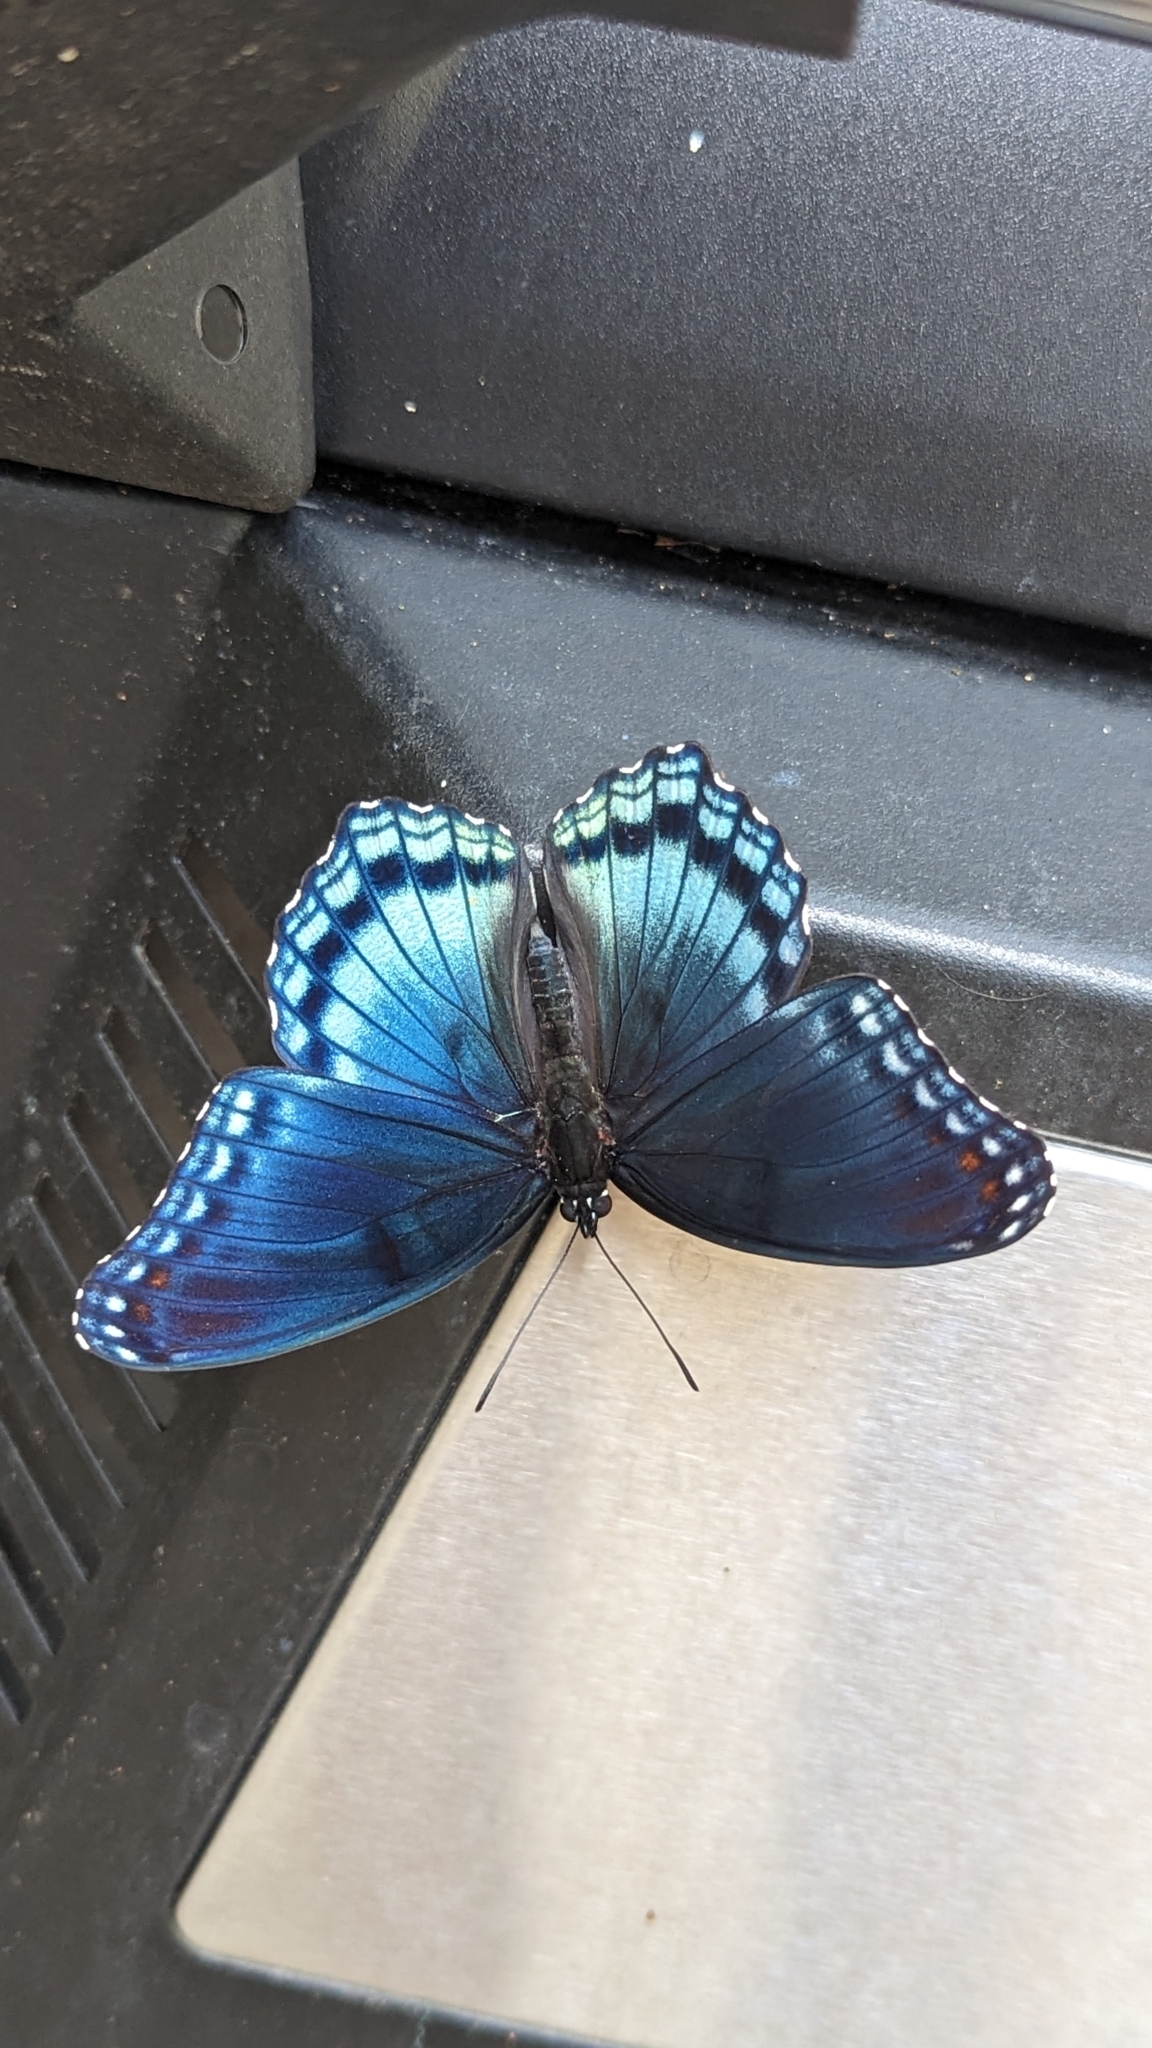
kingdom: Animalia
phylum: Arthropoda
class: Insecta
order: Lepidoptera
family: Nymphalidae
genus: Limenitis
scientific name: Limenitis astyanax
